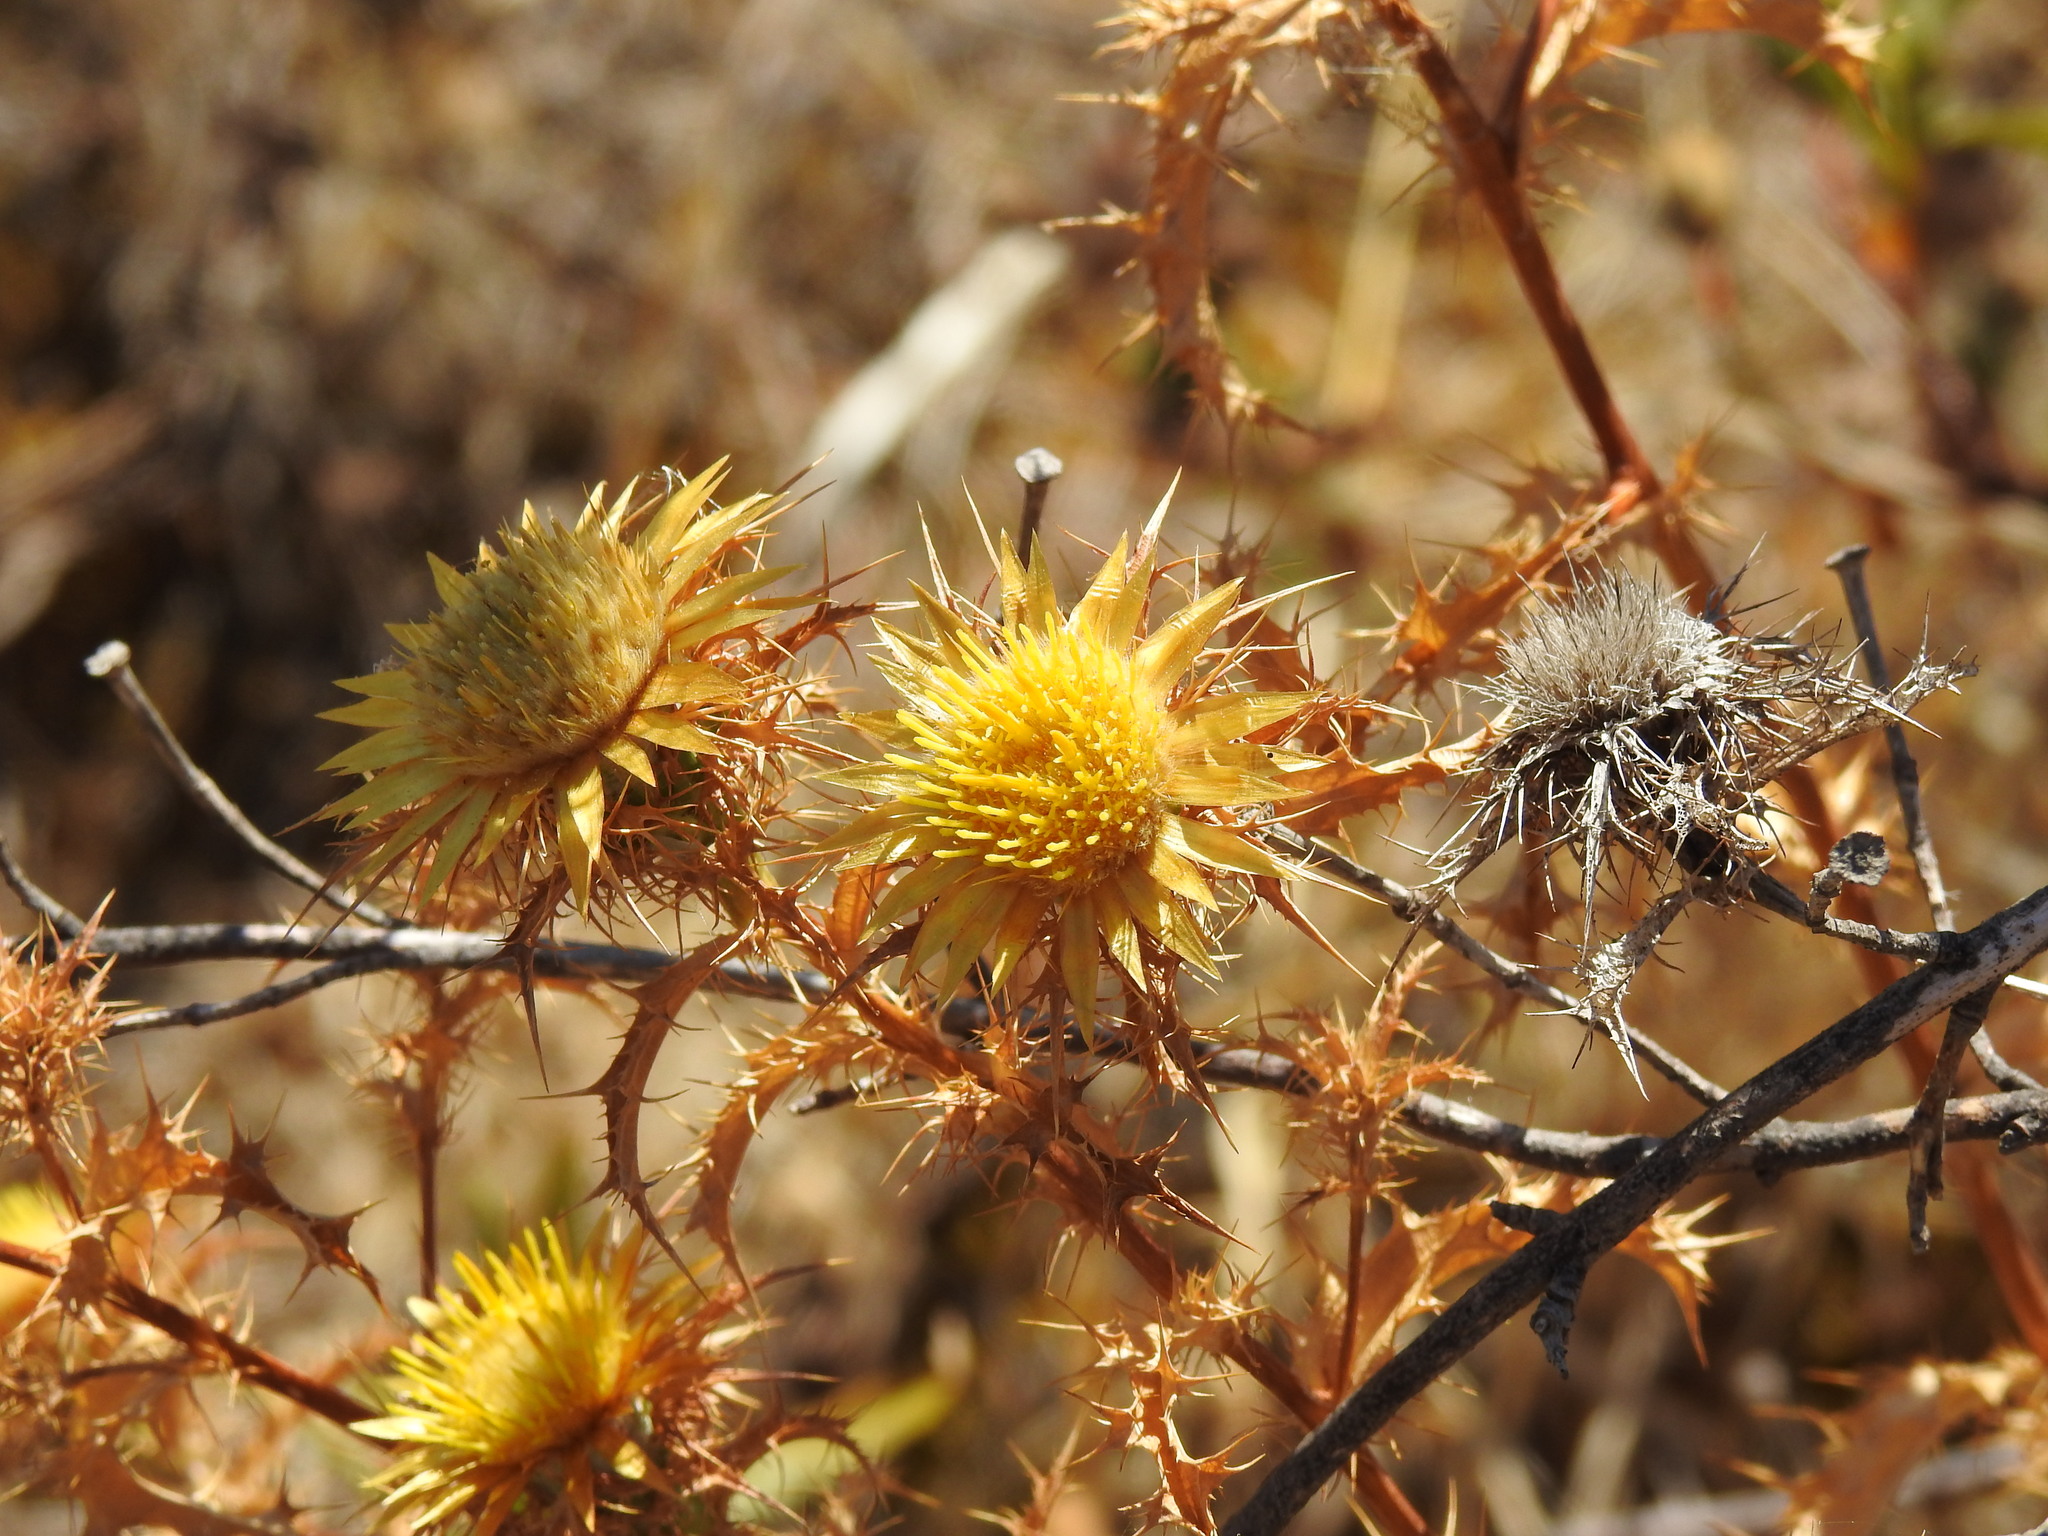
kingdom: Plantae
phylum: Tracheophyta
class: Magnoliopsida
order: Asterales
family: Asteraceae
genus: Carlina
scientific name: Carlina hispanica
